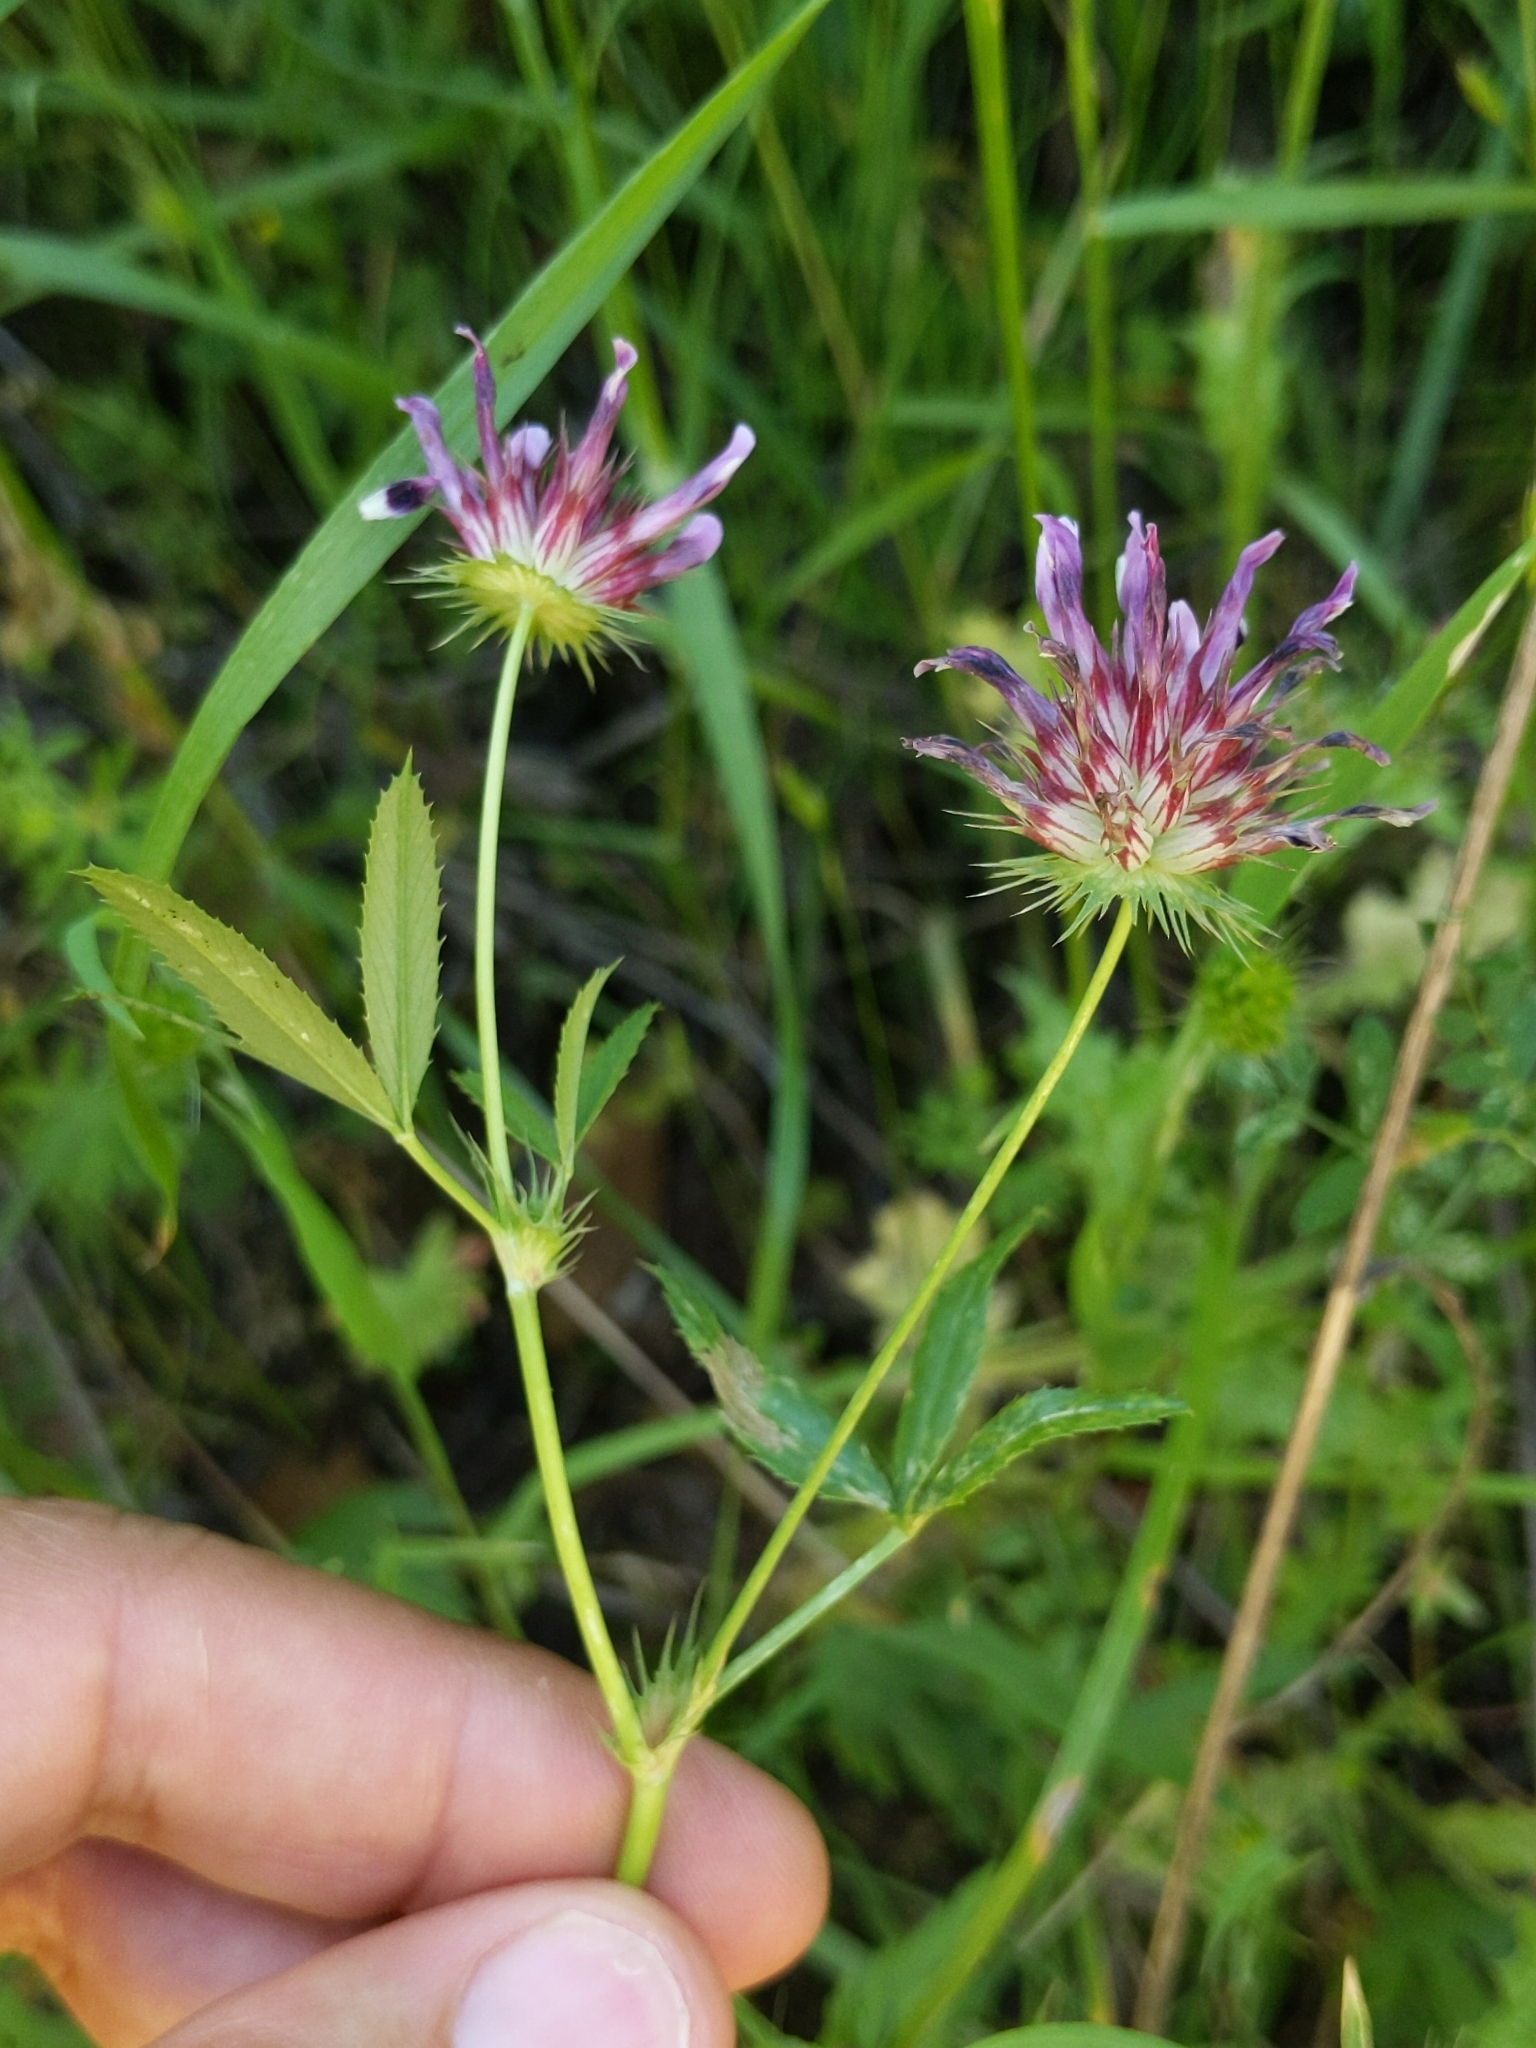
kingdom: Plantae
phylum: Tracheophyta
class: Magnoliopsida
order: Fabales
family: Fabaceae
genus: Trifolium
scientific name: Trifolium willdenovii
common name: Tomcat clover
